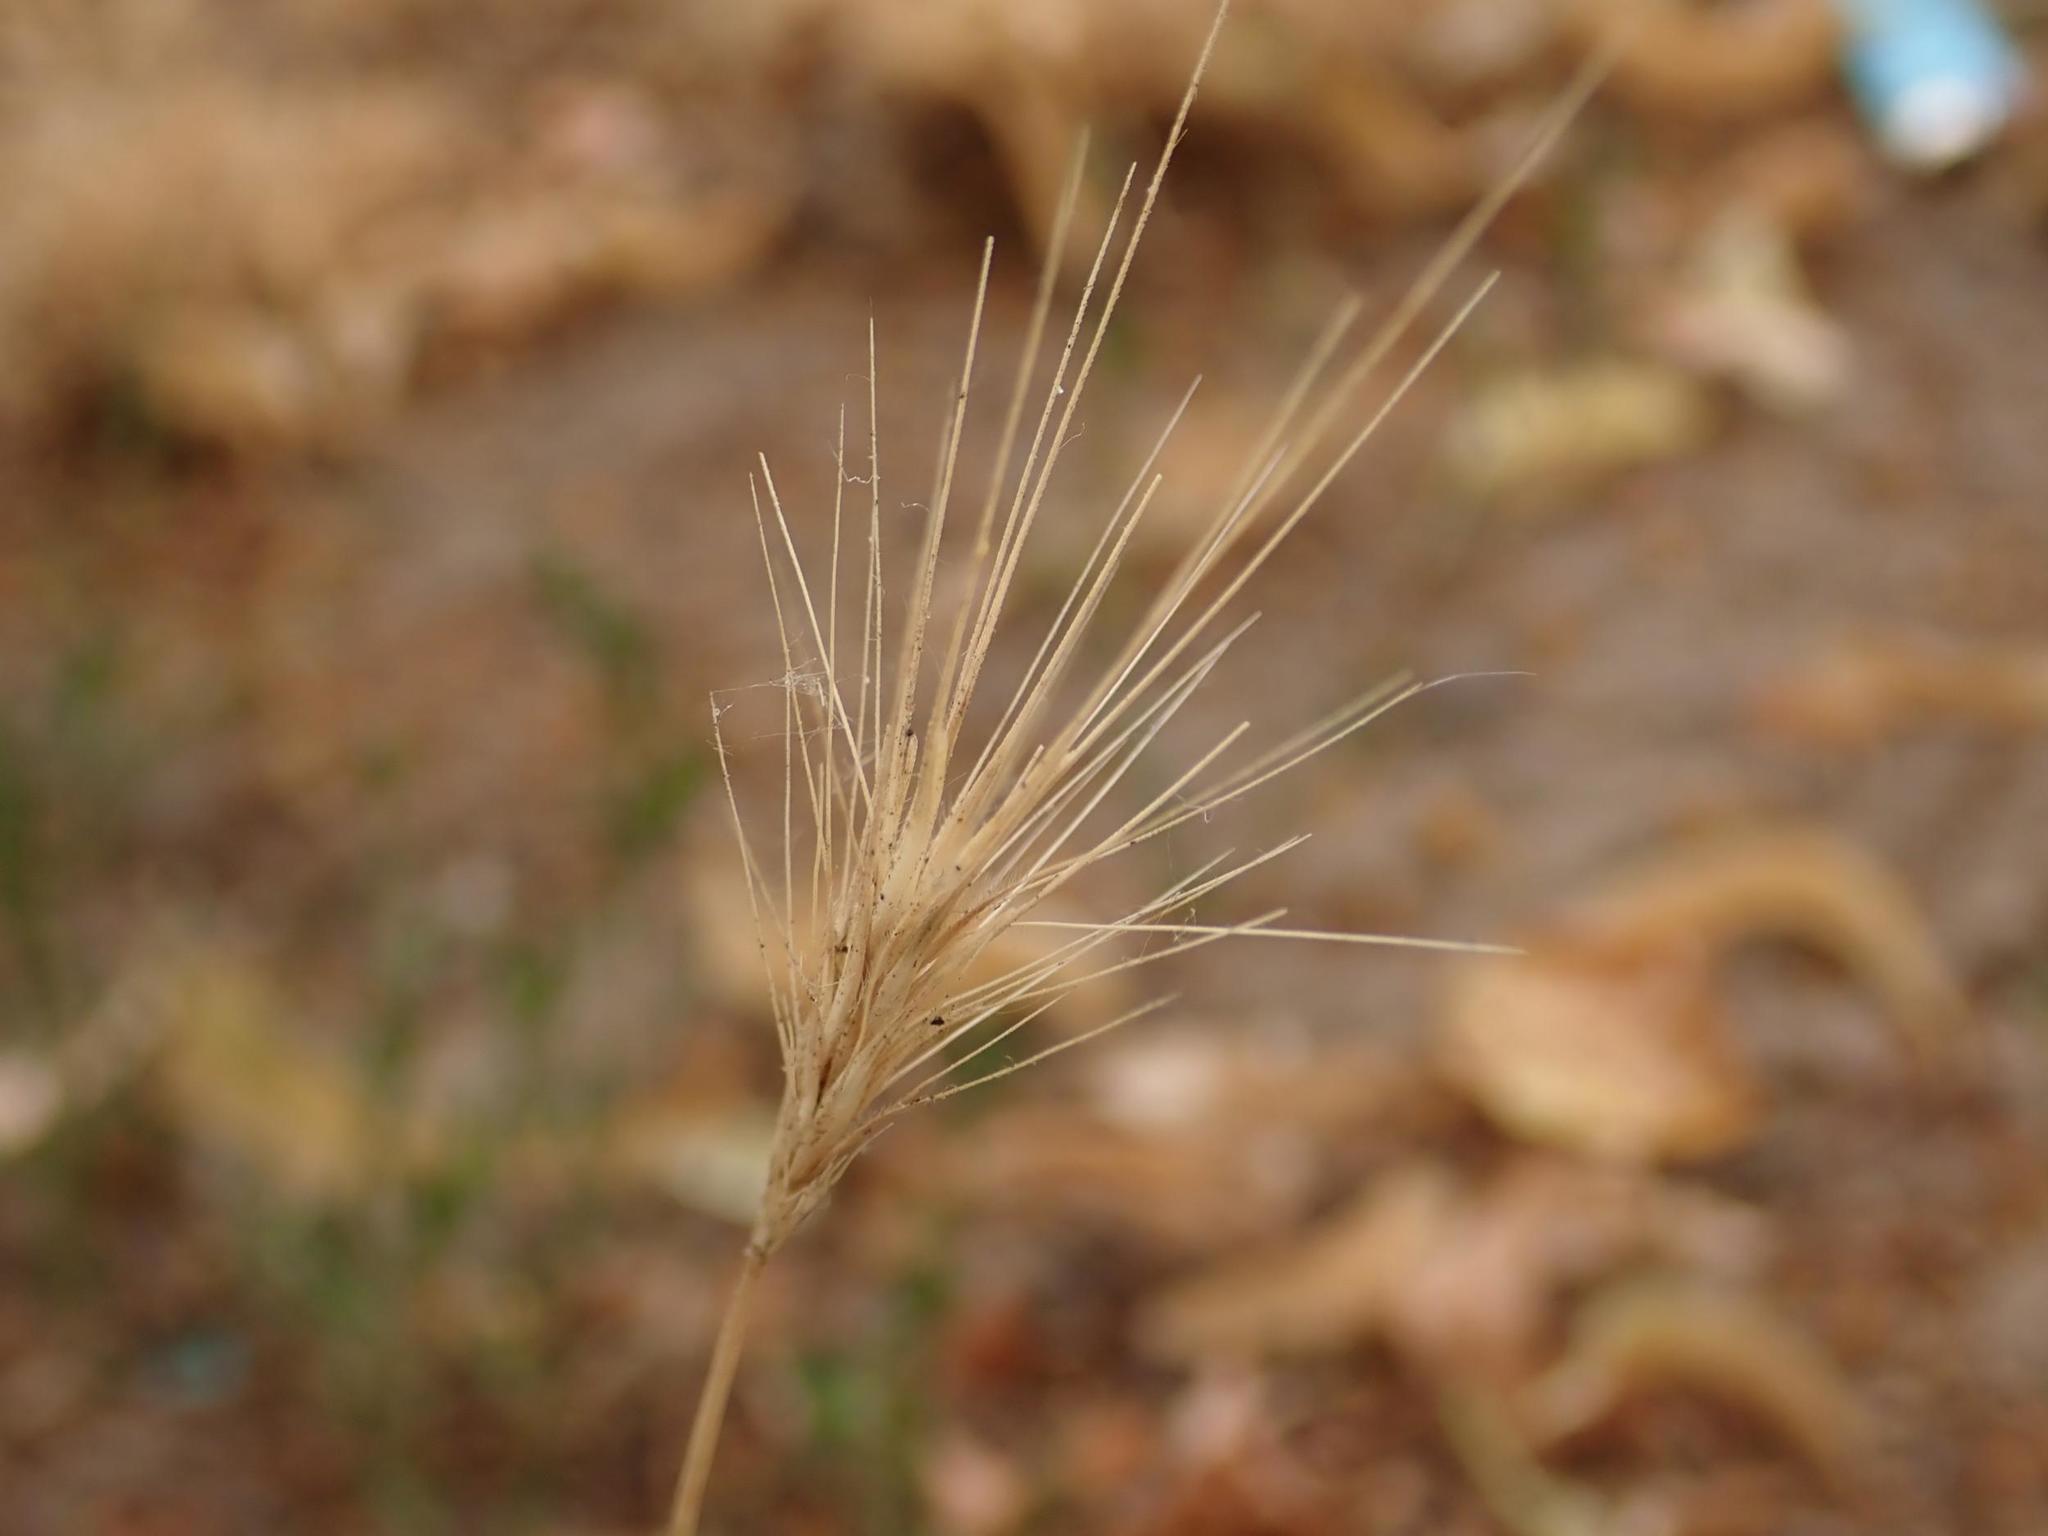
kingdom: Plantae
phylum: Tracheophyta
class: Liliopsida
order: Poales
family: Poaceae
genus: Hordeum
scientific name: Hordeum murinum
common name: Wall barley
